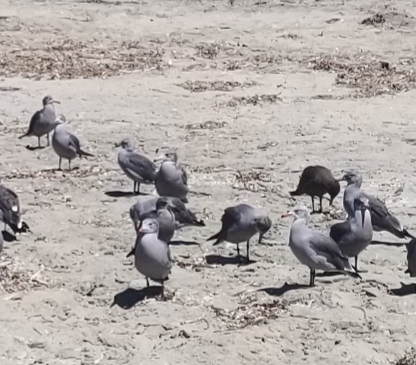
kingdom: Animalia
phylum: Chordata
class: Aves
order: Charadriiformes
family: Laridae
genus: Larus
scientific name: Larus heermanni
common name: Heermann's gull
